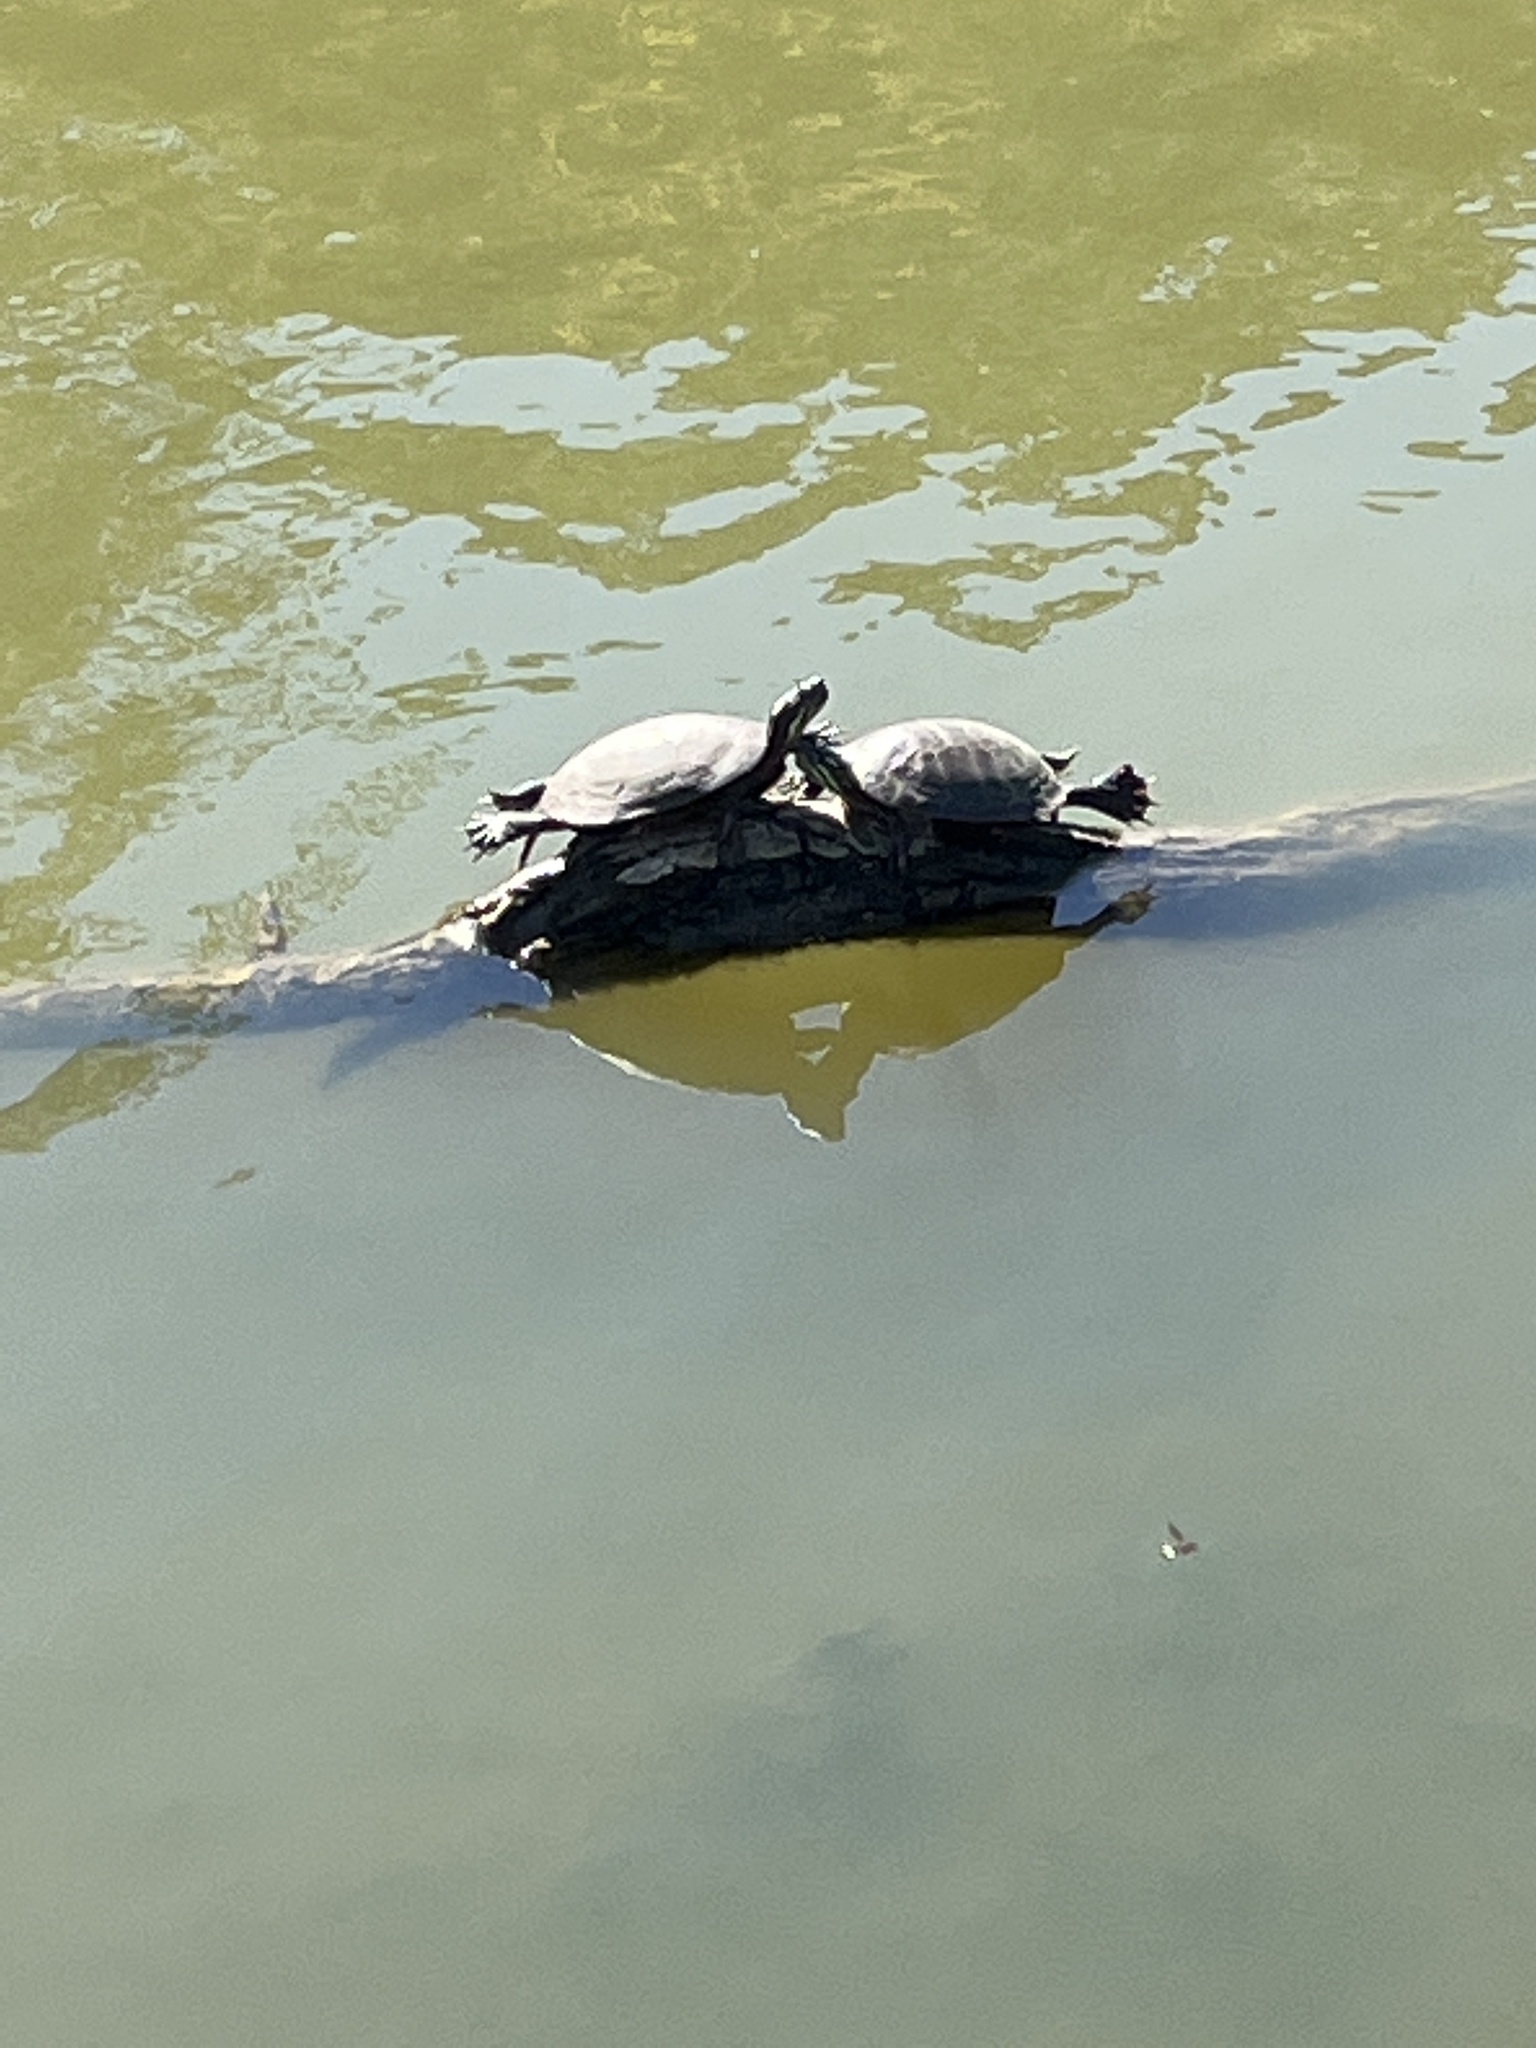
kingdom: Animalia
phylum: Chordata
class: Testudines
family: Emydidae
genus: Chrysemys
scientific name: Chrysemys picta
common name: Painted turtle
